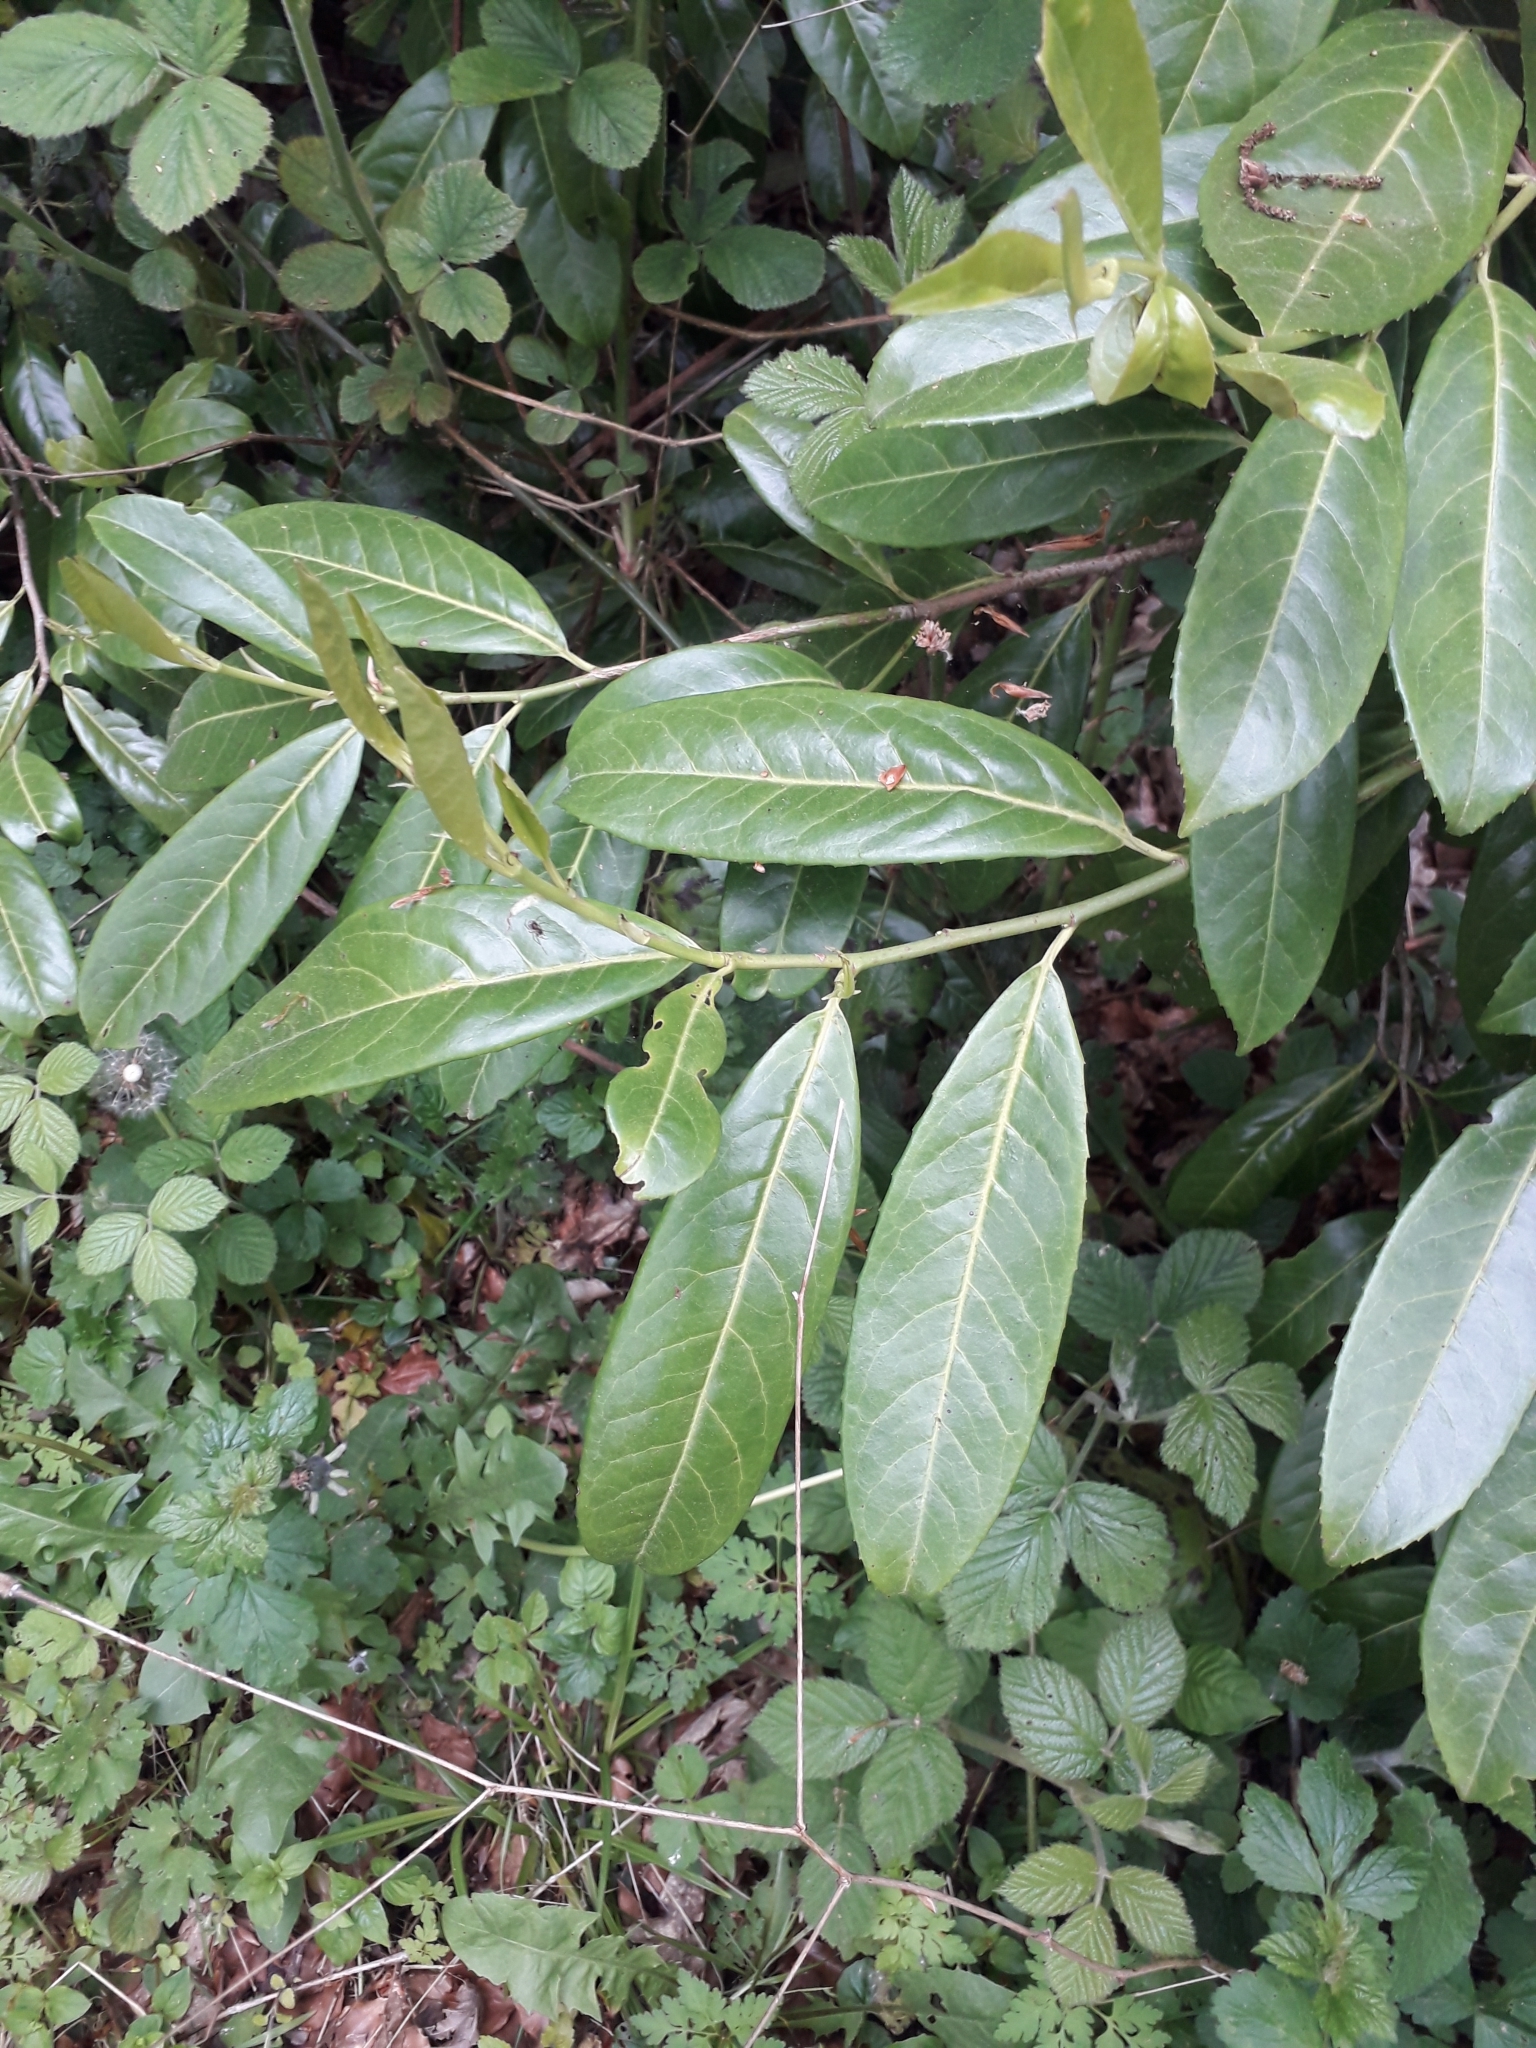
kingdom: Plantae
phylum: Tracheophyta
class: Magnoliopsida
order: Rosales
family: Rosaceae
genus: Prunus
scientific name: Prunus laurocerasus
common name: Cherry laurel
